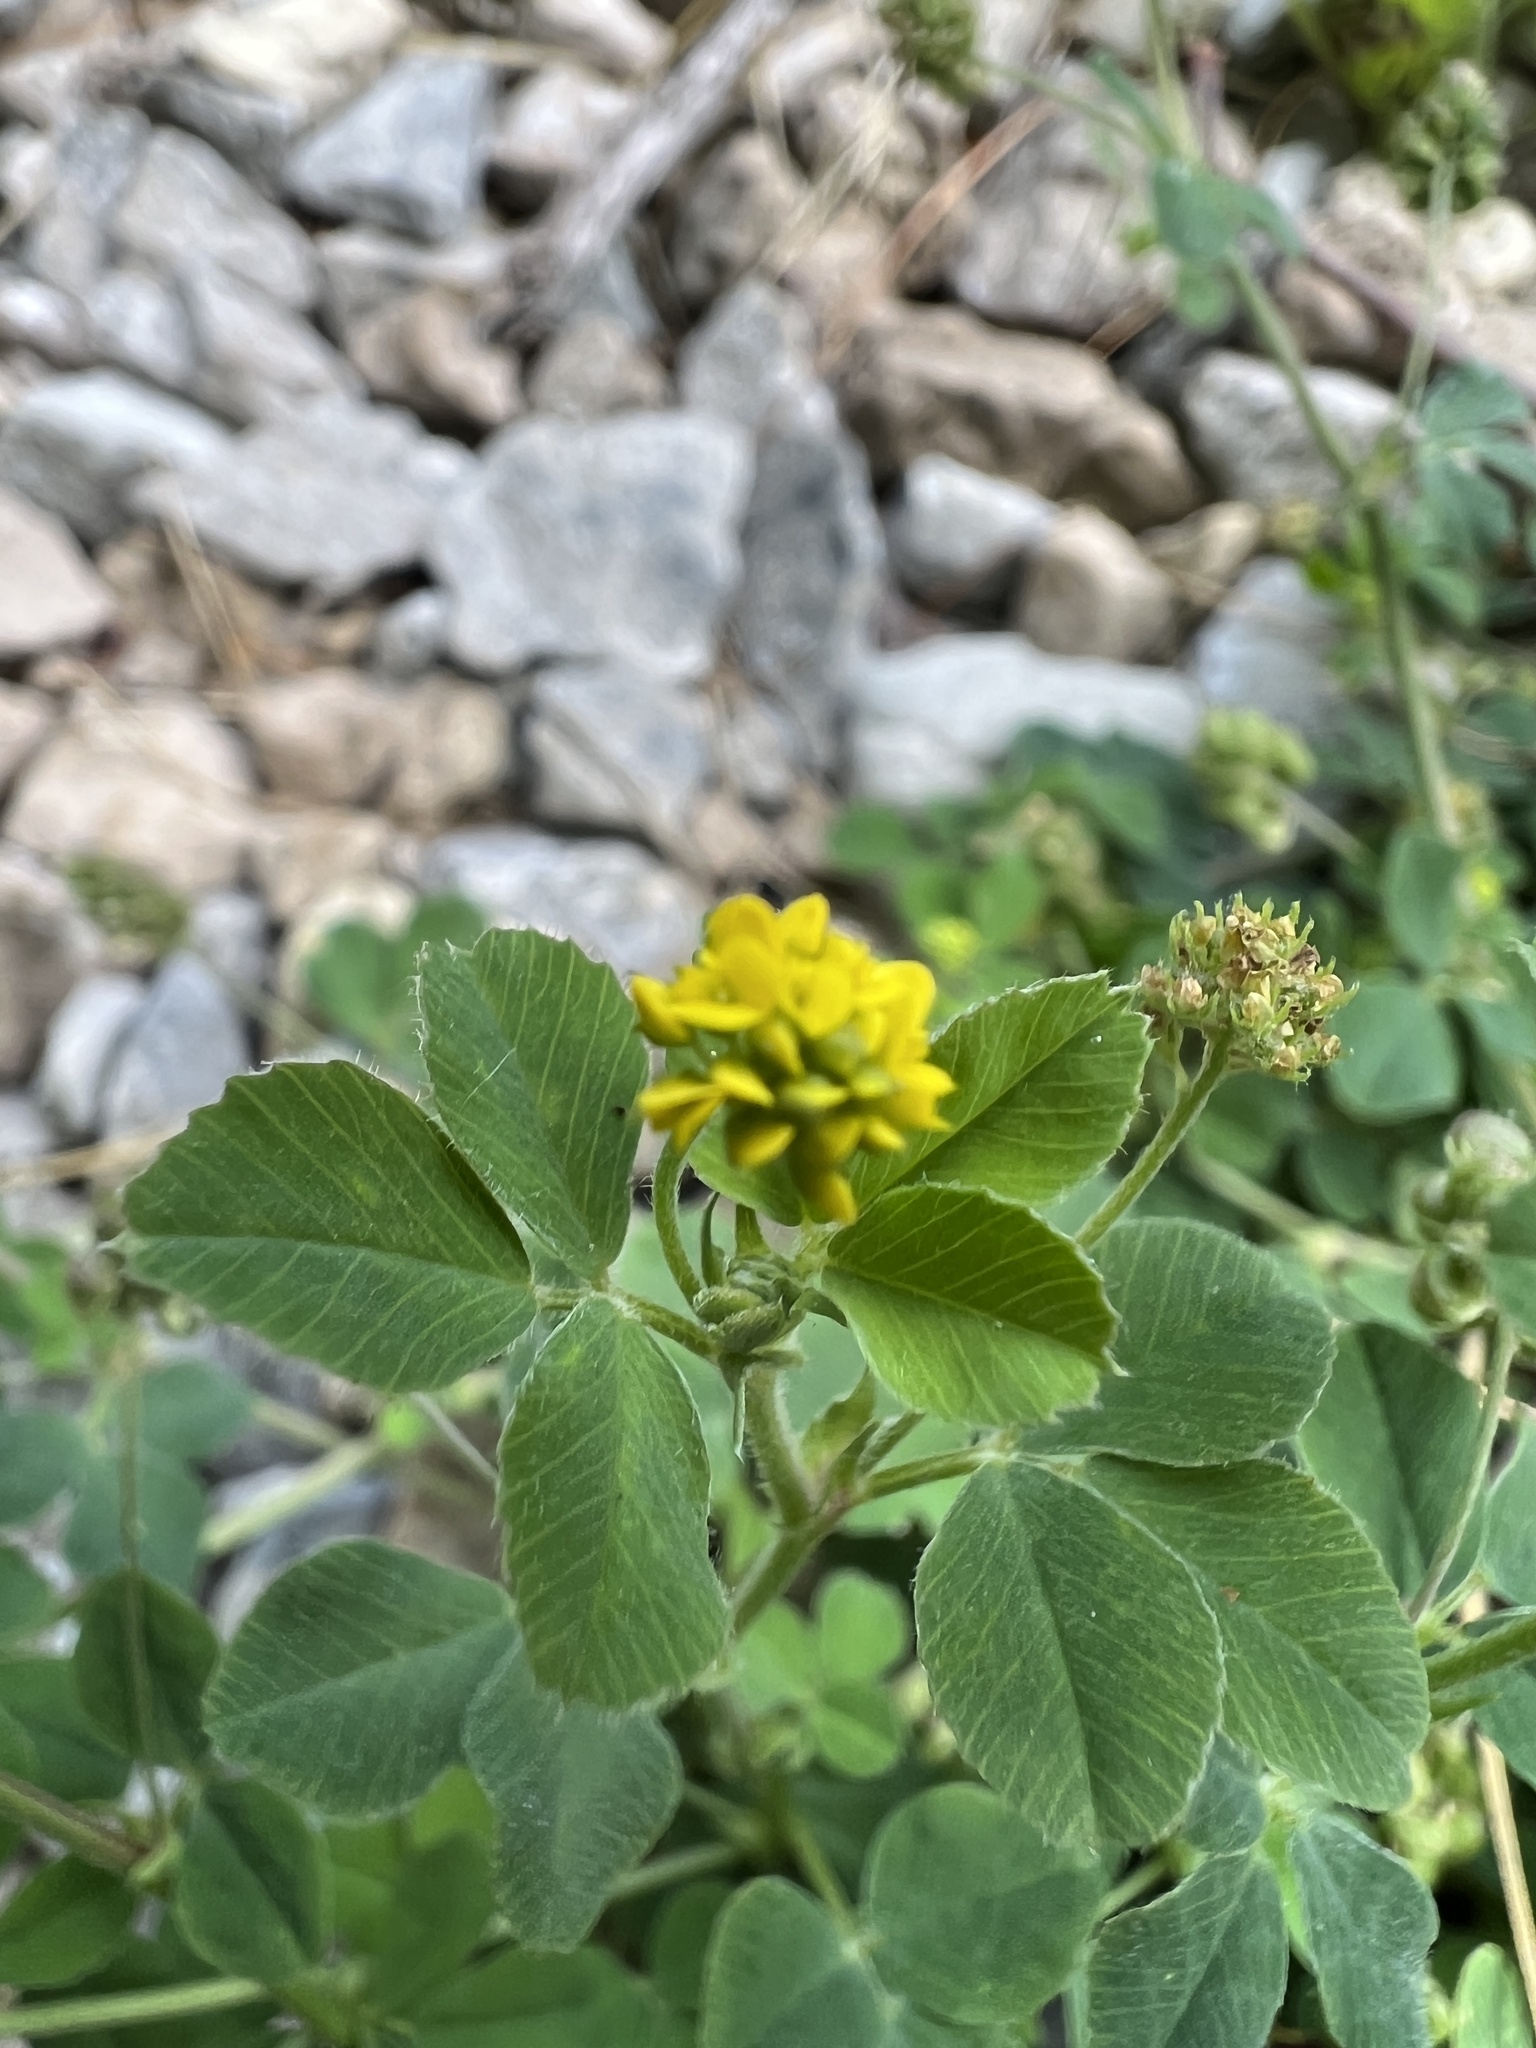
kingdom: Plantae
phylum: Tracheophyta
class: Magnoliopsida
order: Fabales
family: Fabaceae
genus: Medicago
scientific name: Medicago lupulina
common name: Black medick
